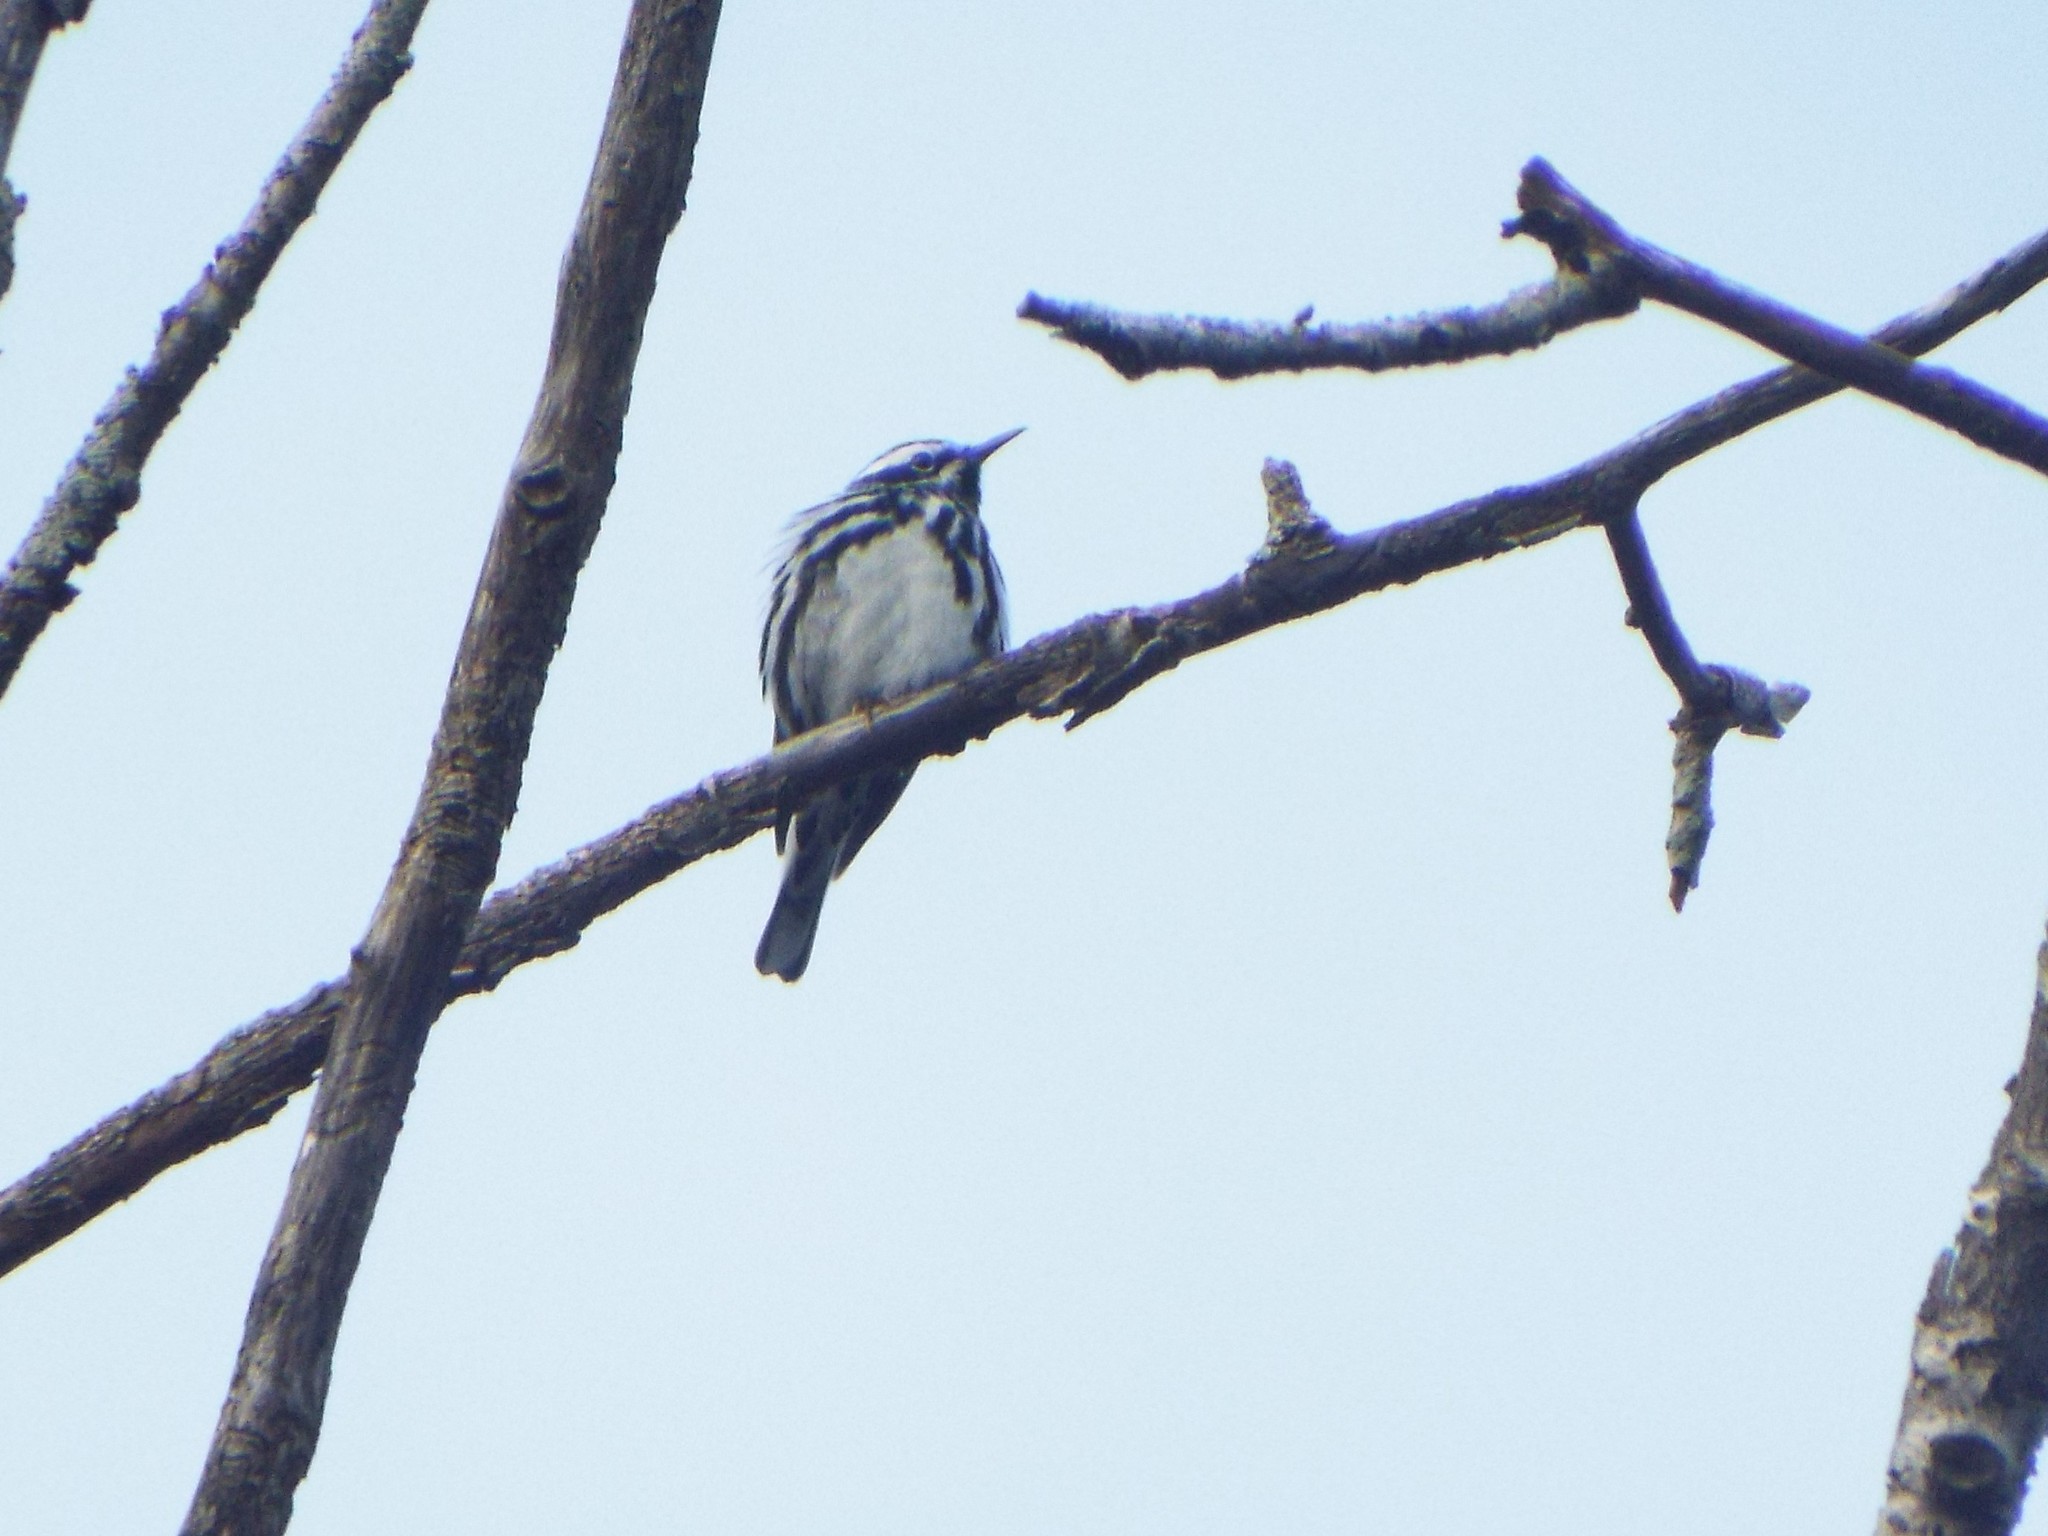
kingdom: Animalia
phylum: Chordata
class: Aves
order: Passeriformes
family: Parulidae
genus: Mniotilta
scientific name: Mniotilta varia
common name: Black-and-white warbler
